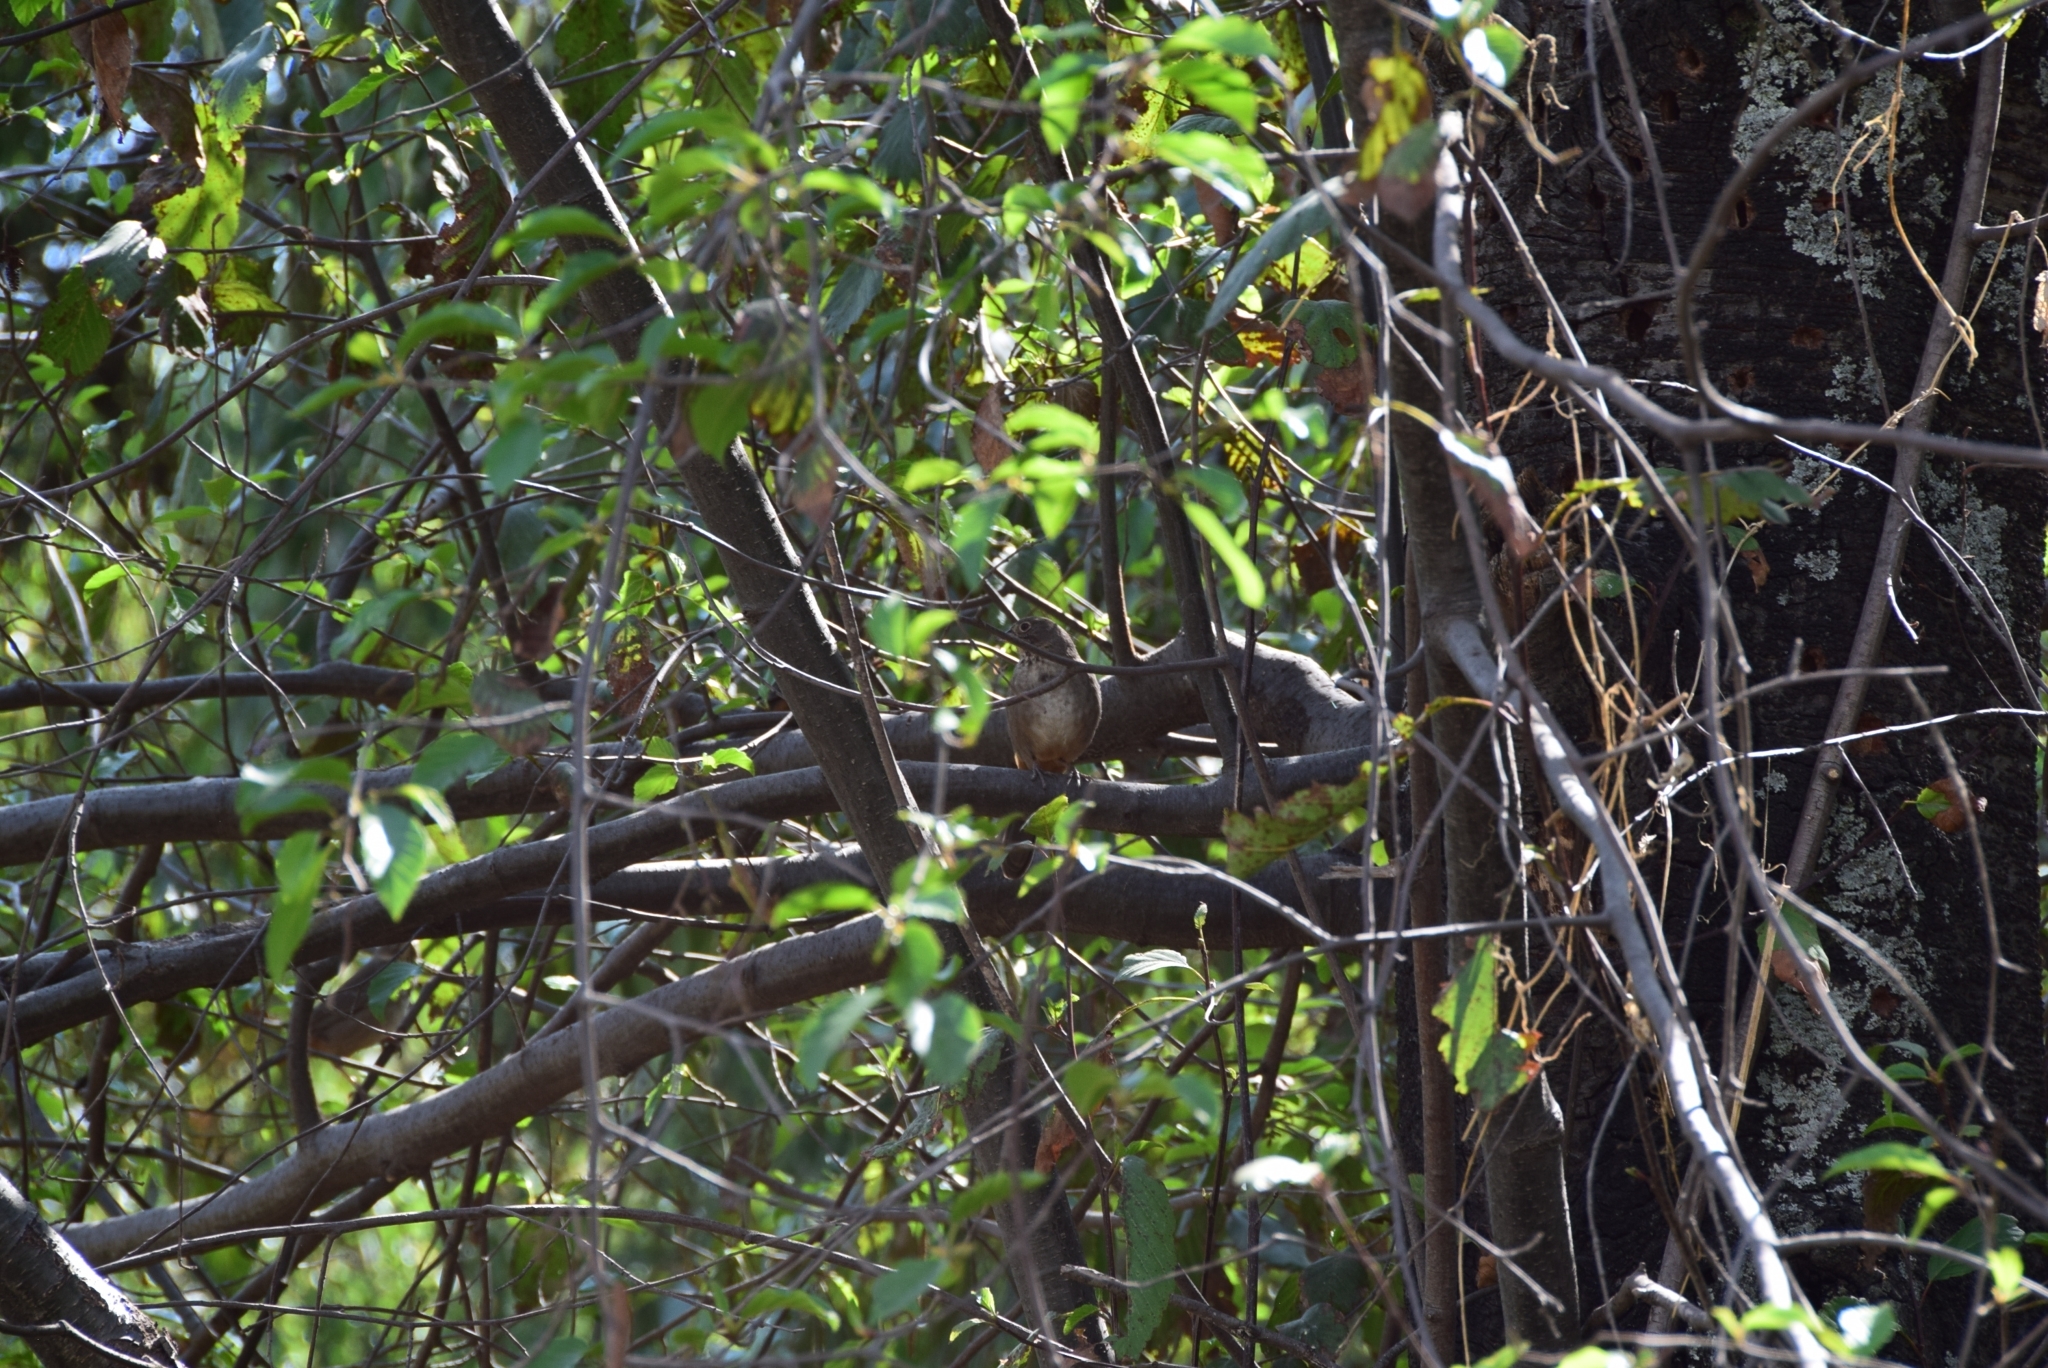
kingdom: Animalia
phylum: Chordata
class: Aves
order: Passeriformes
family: Passerellidae
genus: Melozone
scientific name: Melozone fusca
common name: Canyon towhee
